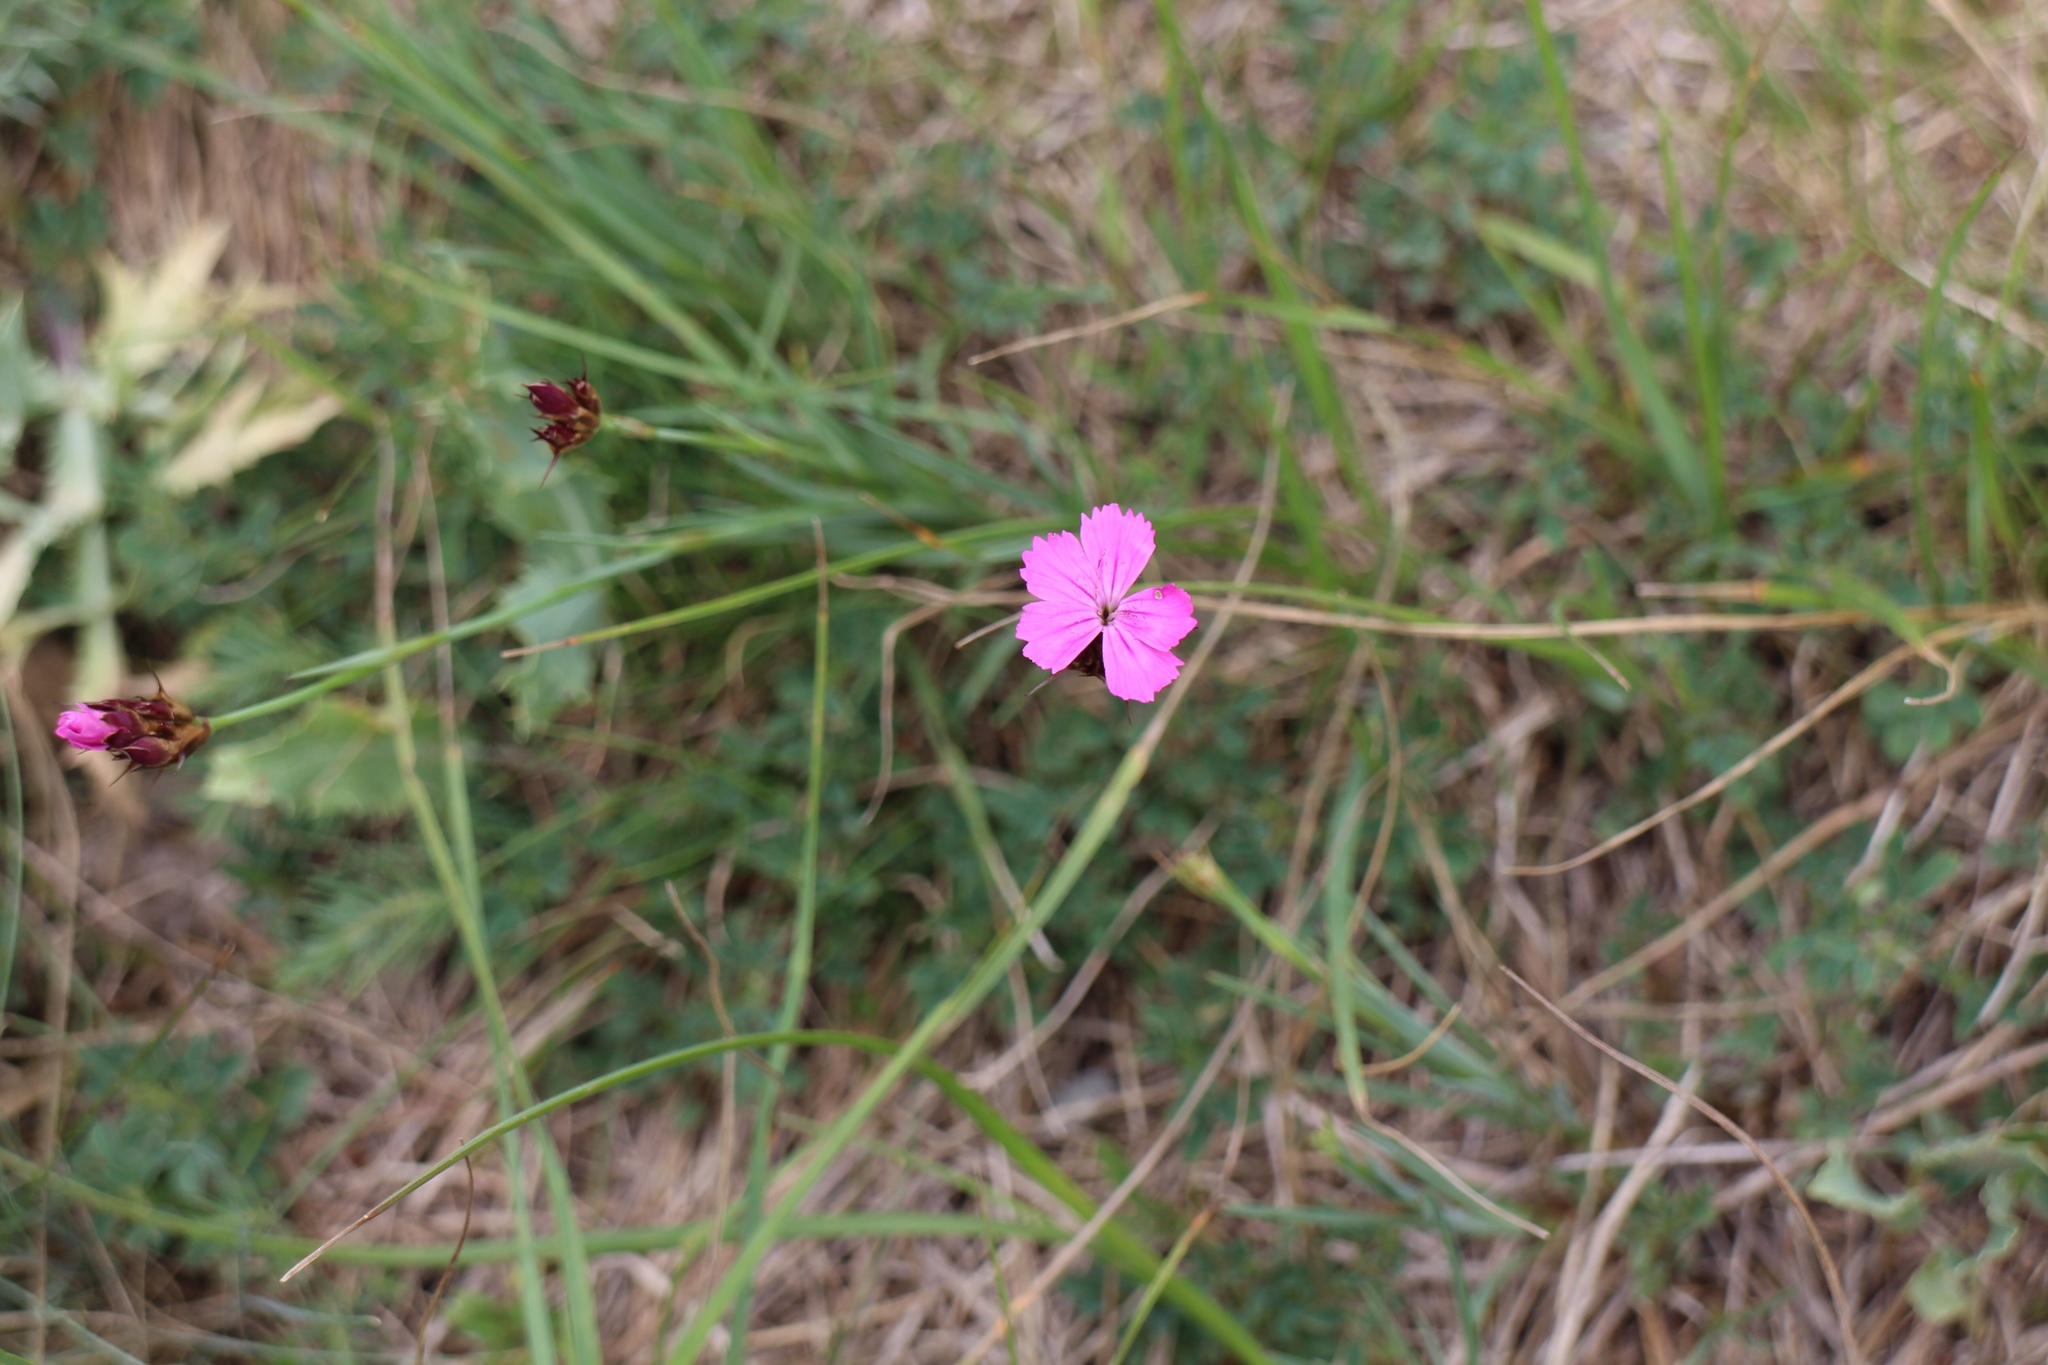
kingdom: Plantae
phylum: Tracheophyta
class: Magnoliopsida
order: Caryophyllales
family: Caryophyllaceae
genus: Dianthus
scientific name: Dianthus carthusianorum
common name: Carthusian pink
